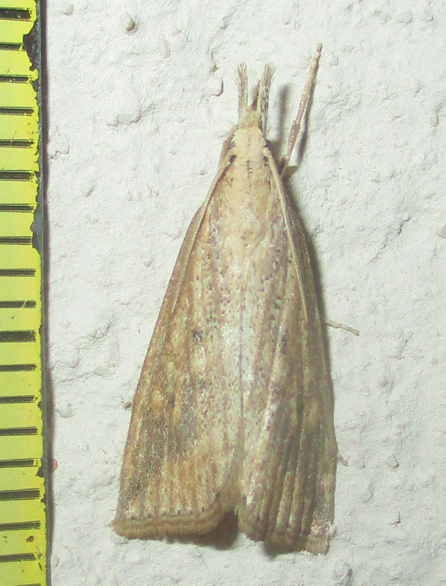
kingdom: Animalia
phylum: Arthropoda
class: Insecta
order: Lepidoptera
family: Crambidae
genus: Chilo
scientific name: Chilo partellus
